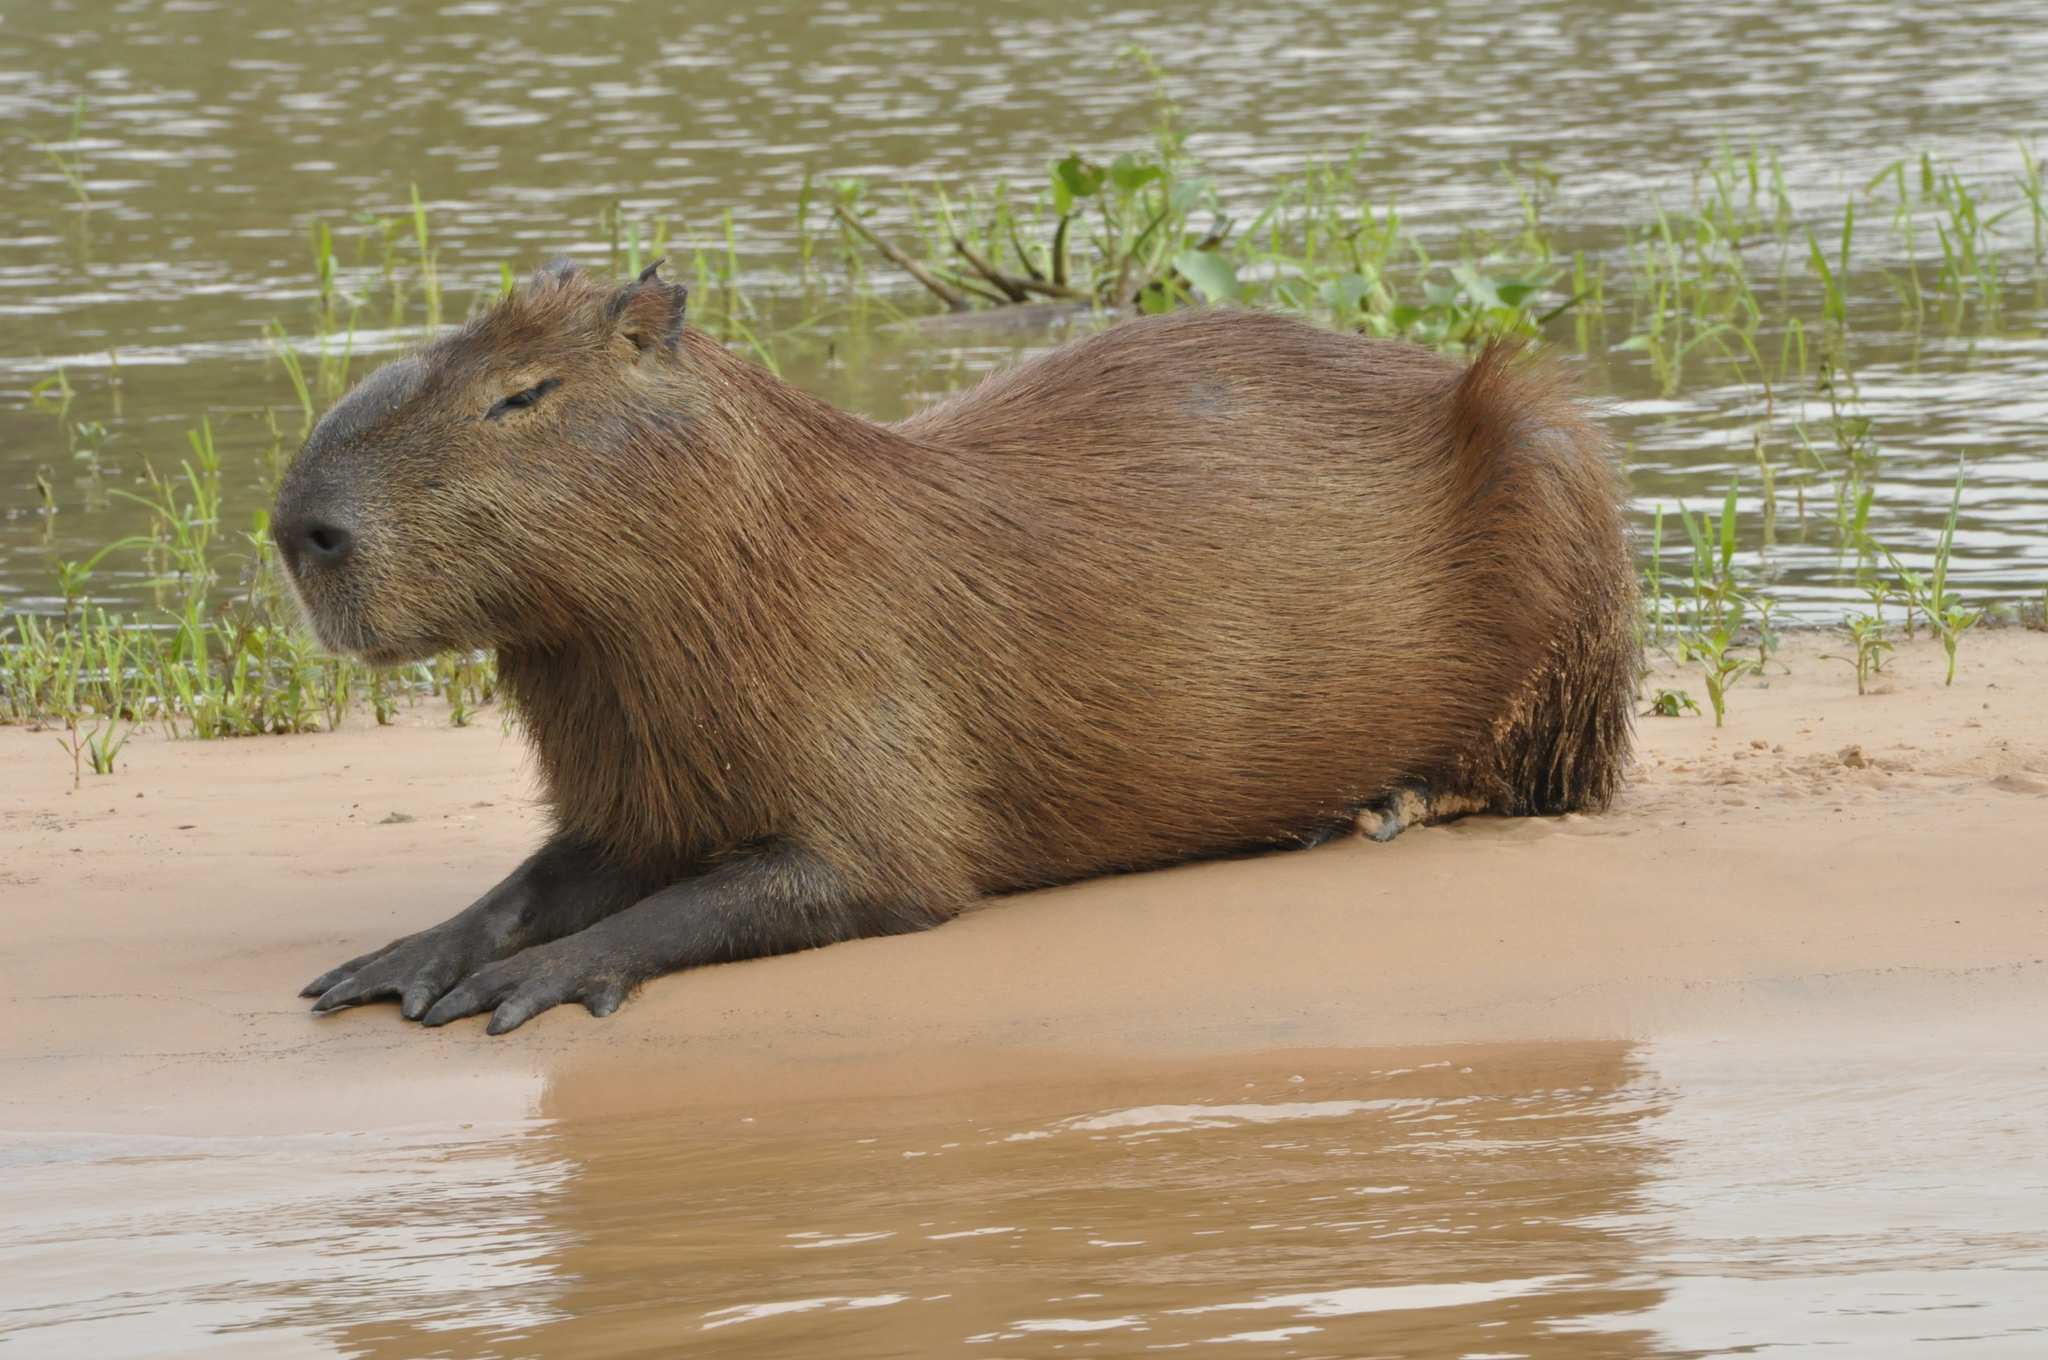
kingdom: Animalia
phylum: Chordata
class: Mammalia
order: Rodentia
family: Caviidae
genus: Hydrochoerus
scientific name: Hydrochoerus hydrochaeris
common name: Capybara
